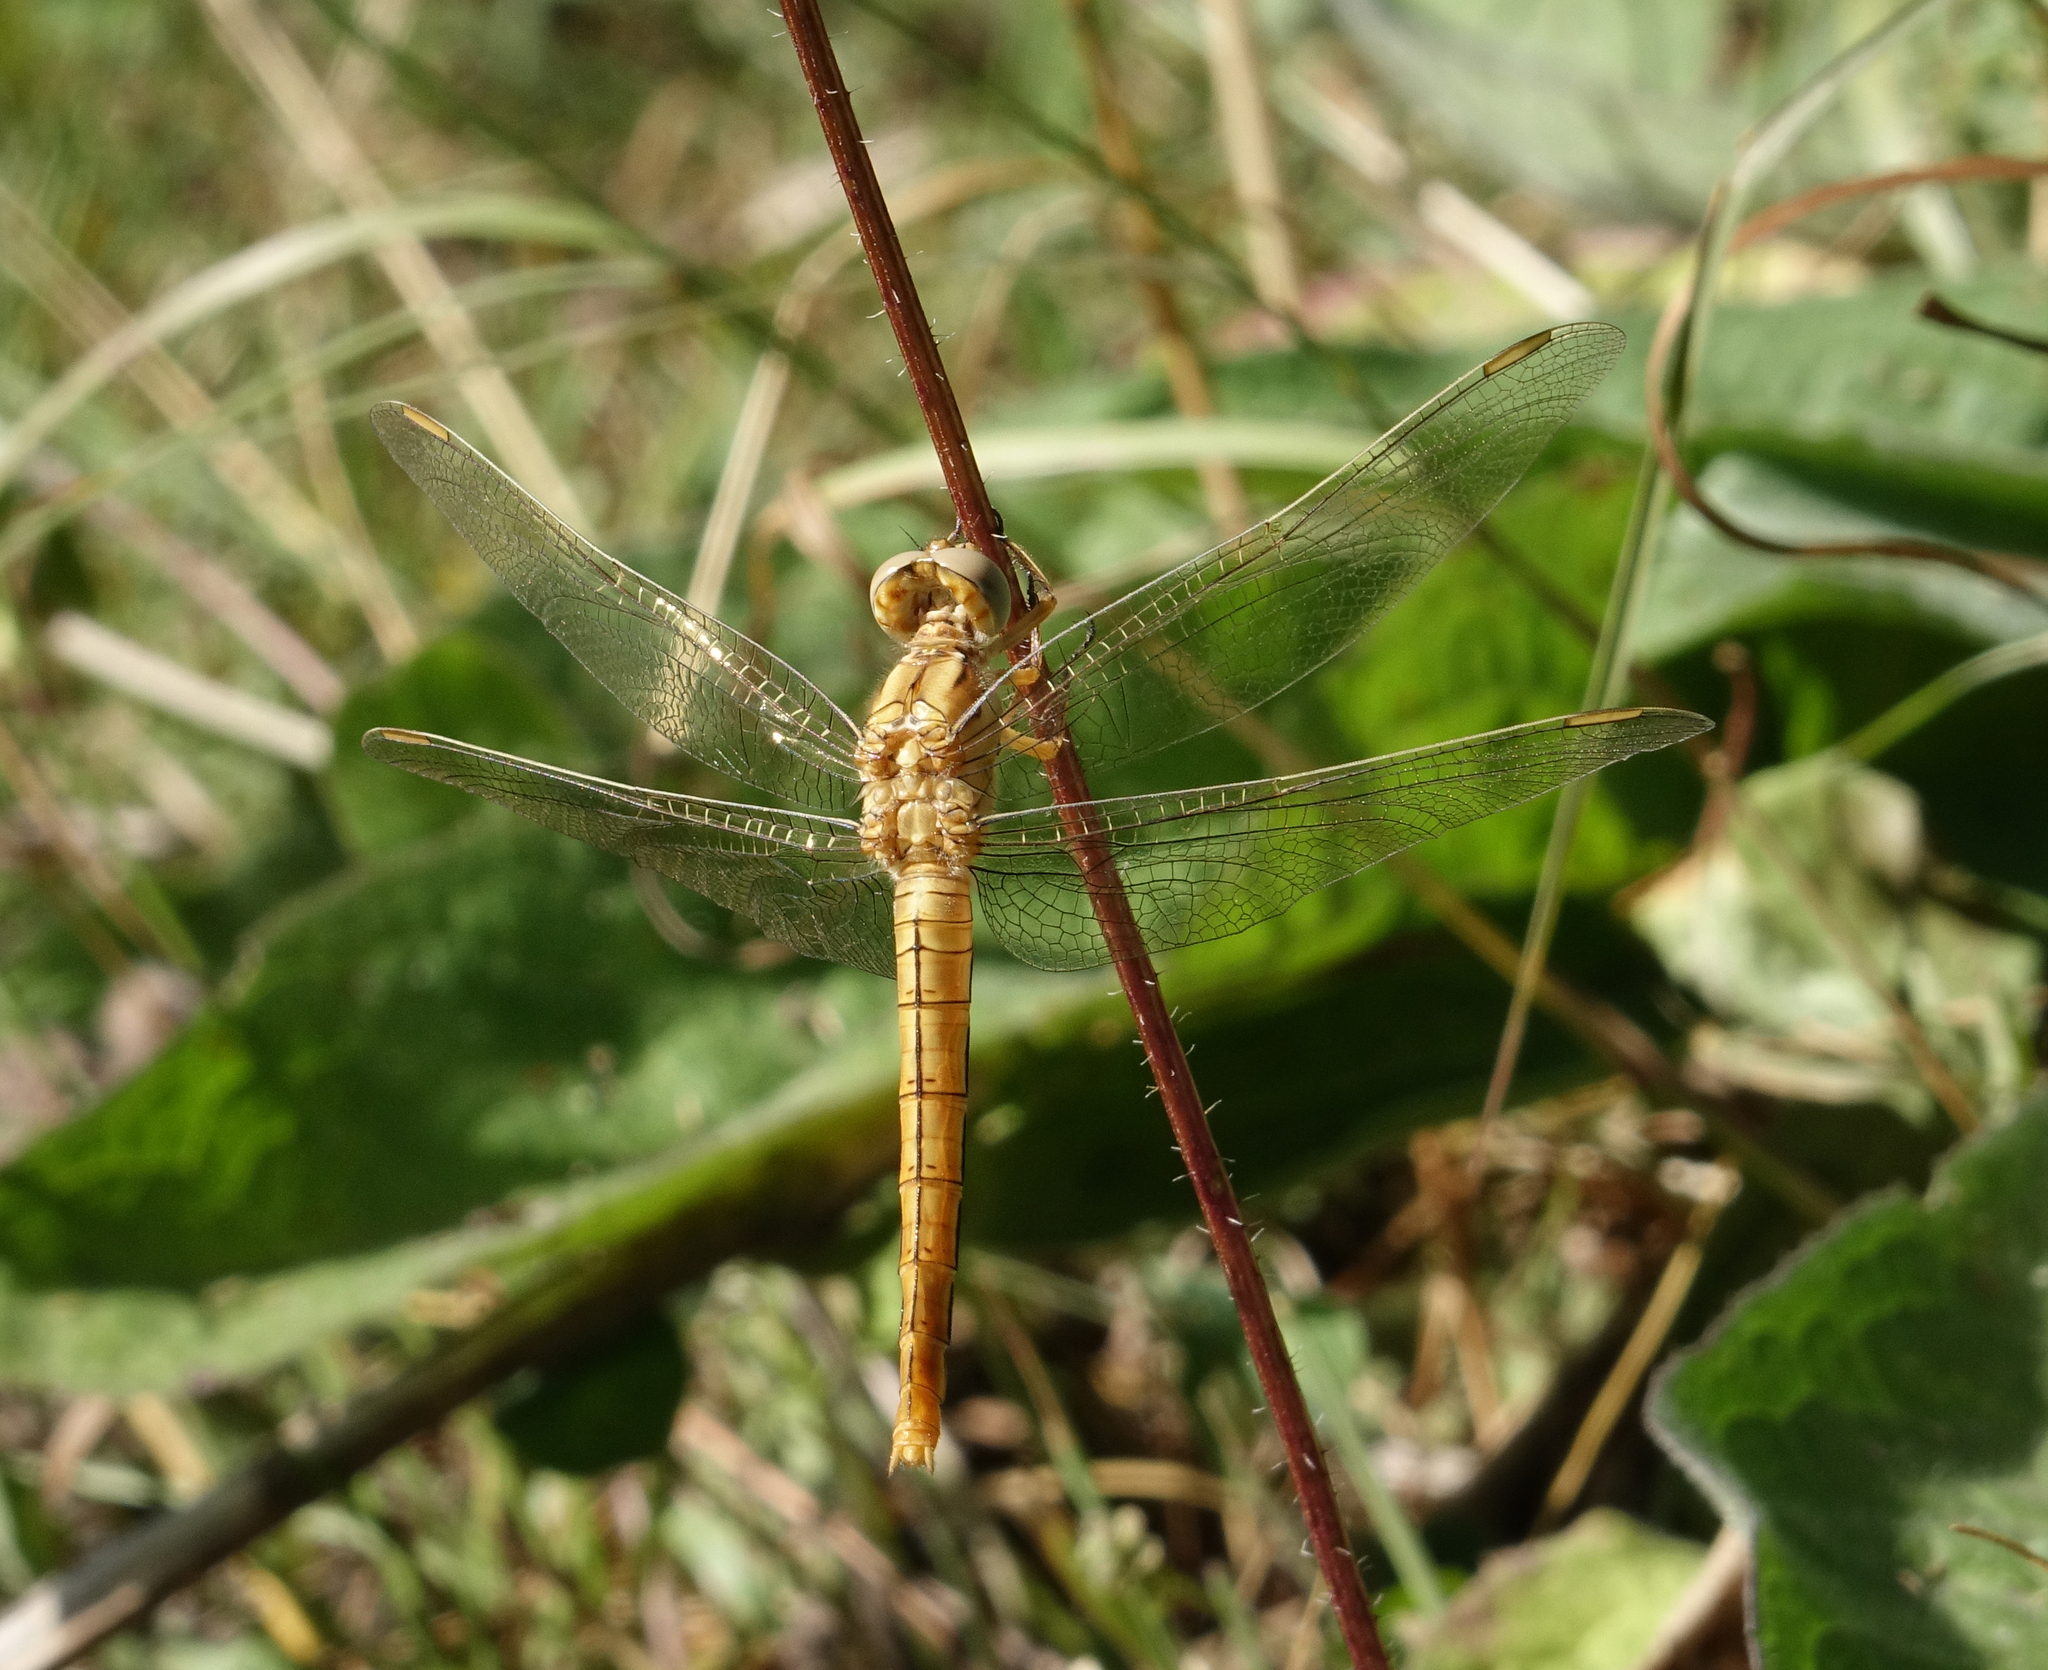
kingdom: Animalia
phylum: Arthropoda
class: Insecta
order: Odonata
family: Libellulidae
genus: Orthetrum
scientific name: Orthetrum brunneum
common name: Southern skimmer
